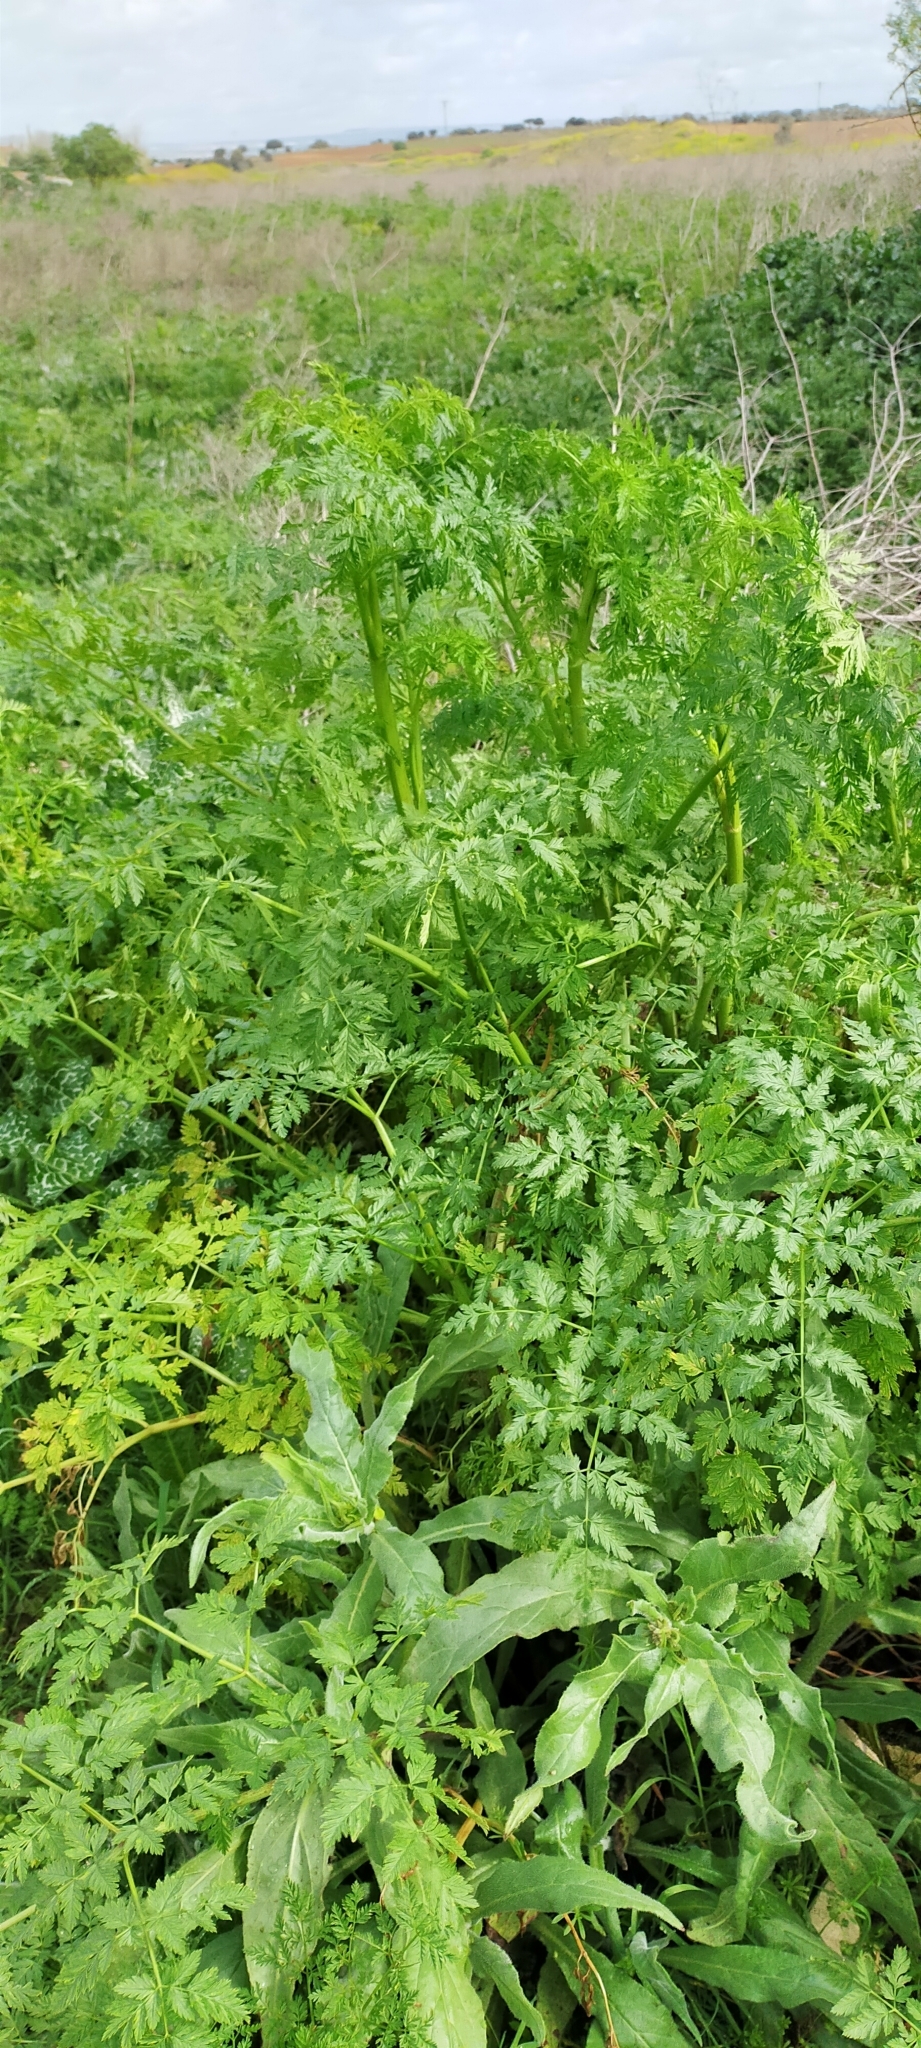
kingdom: Plantae
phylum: Tracheophyta
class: Magnoliopsida
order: Apiales
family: Apiaceae
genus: Conium
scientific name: Conium maculatum
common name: Hemlock
